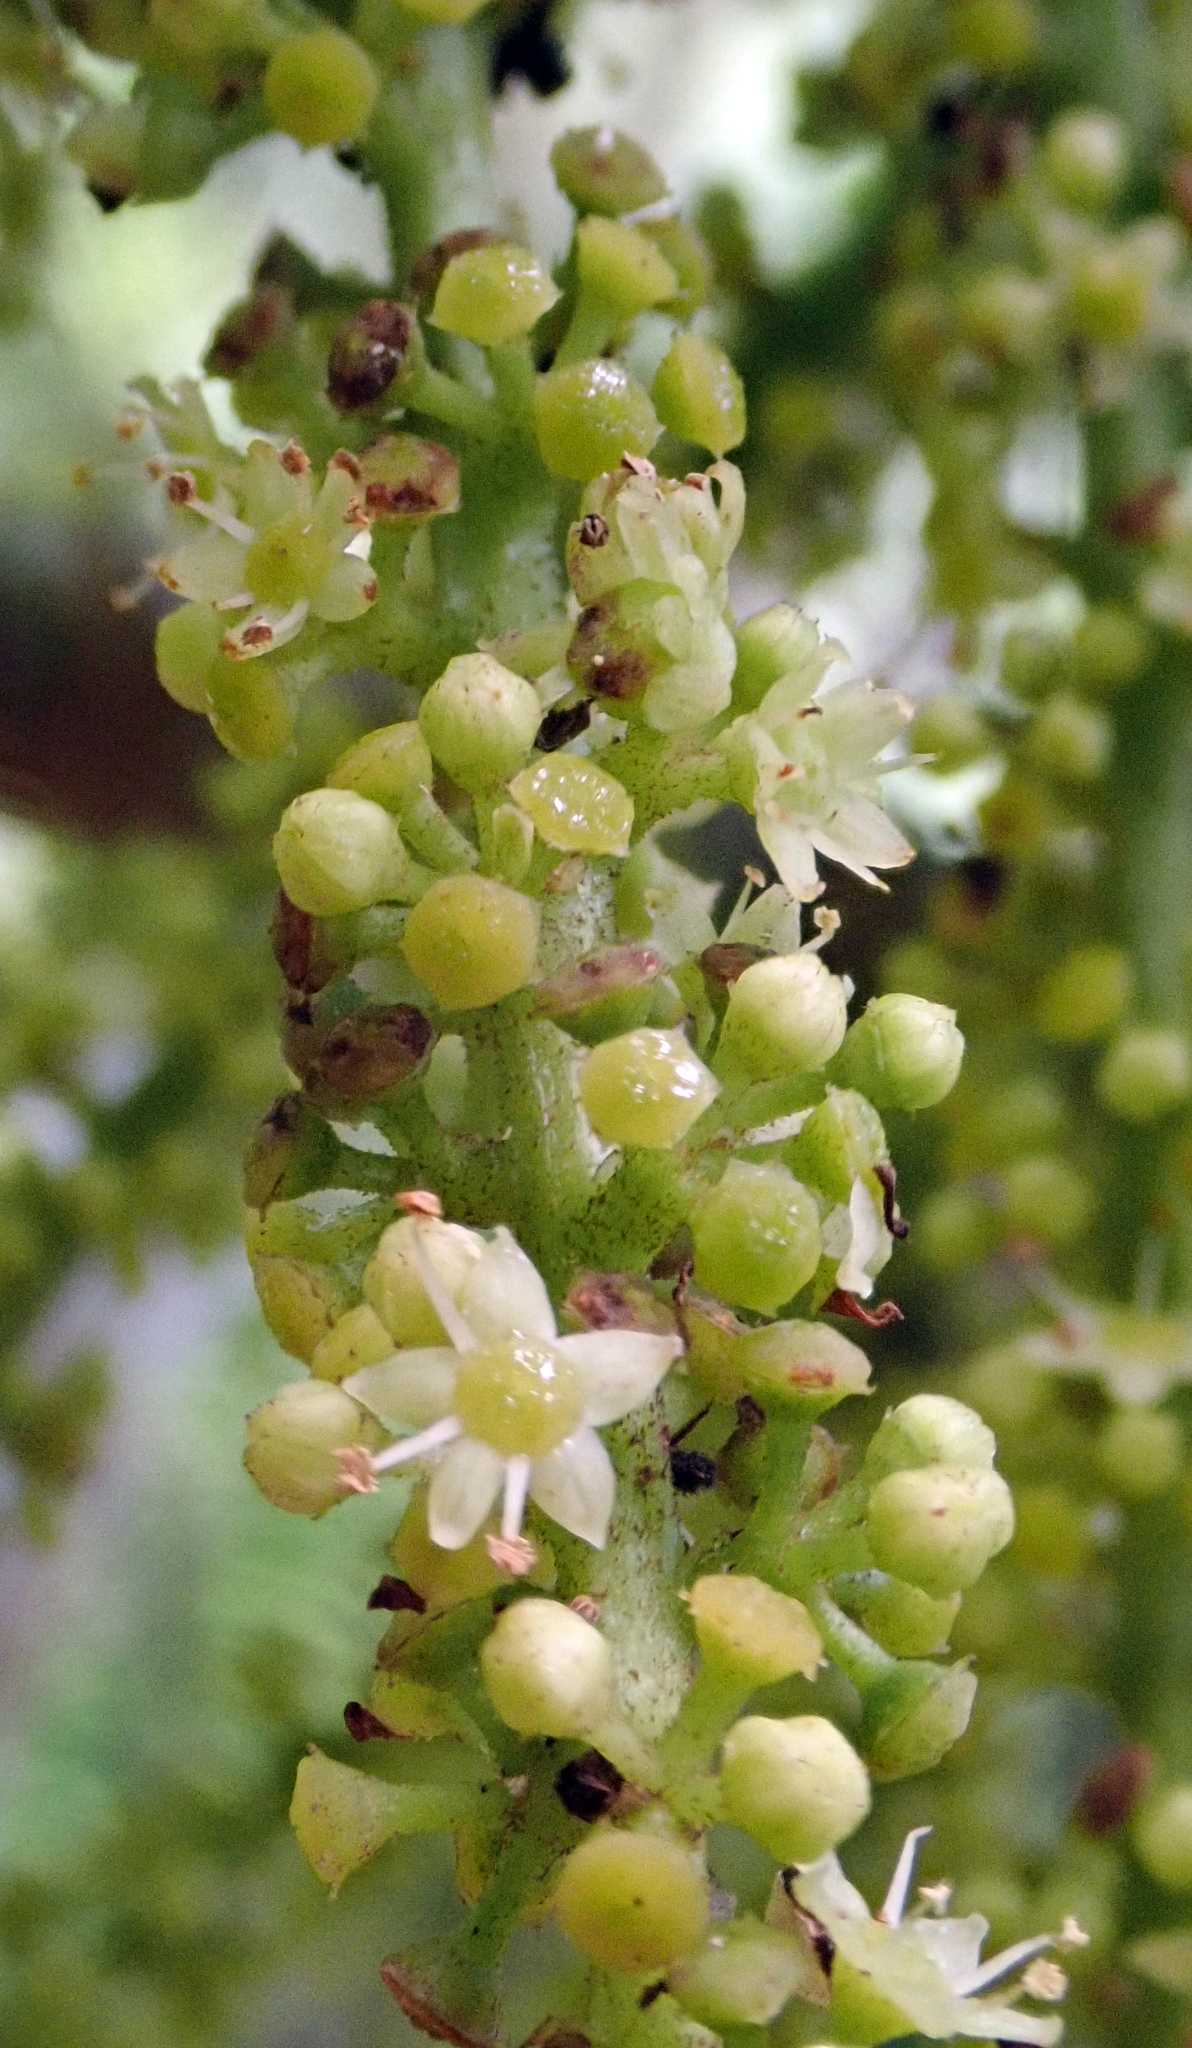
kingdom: Plantae
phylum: Tracheophyta
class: Magnoliopsida
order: Apiales
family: Araliaceae
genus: Schefflera
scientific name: Schefflera digitata
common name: Pate
